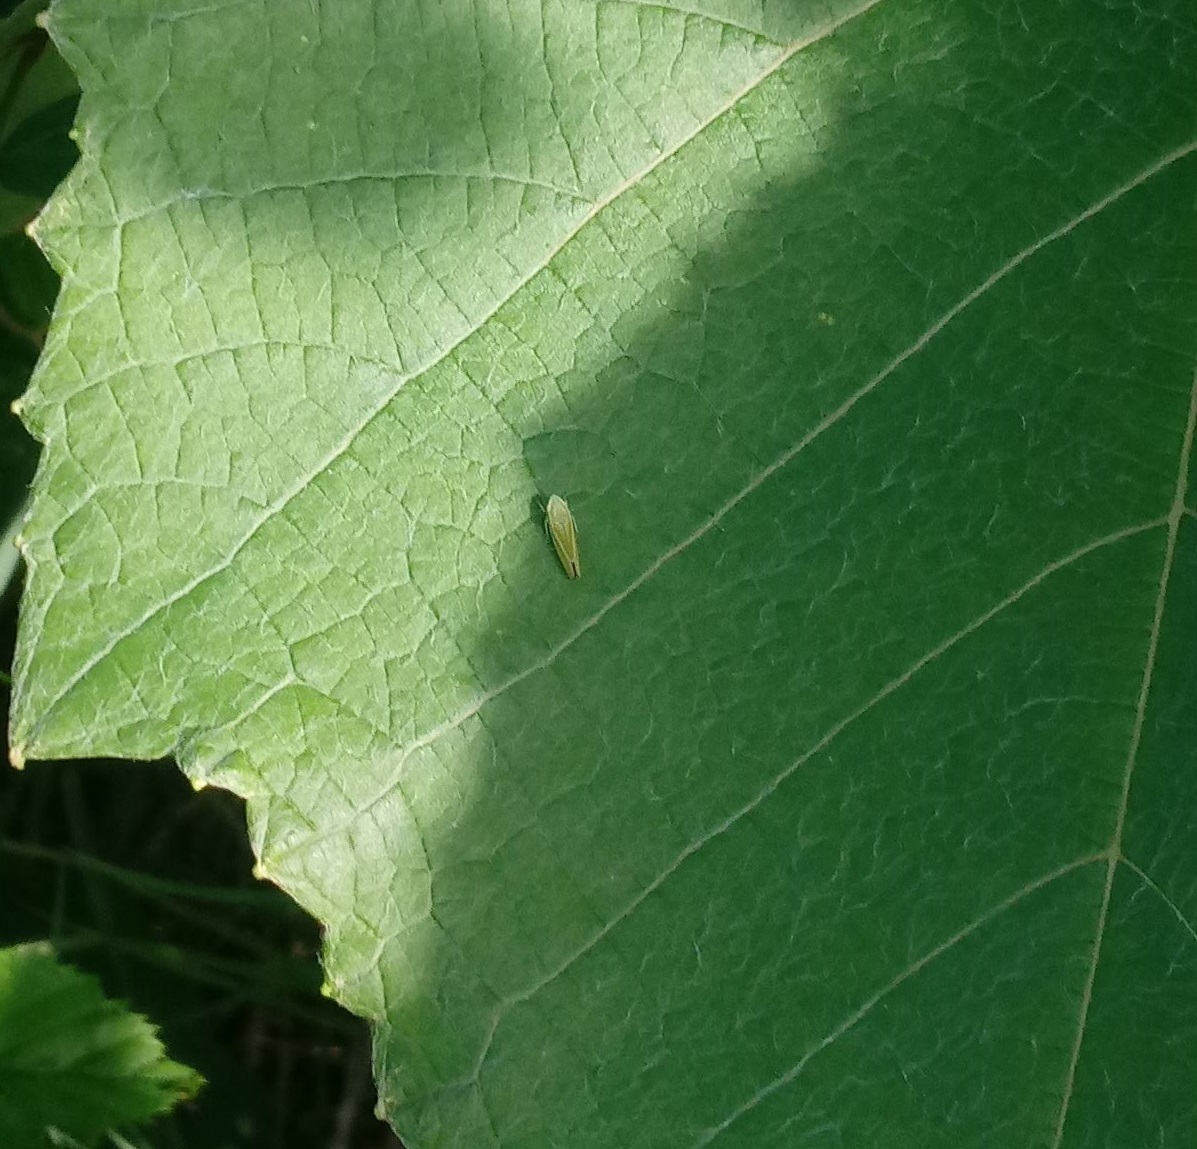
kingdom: Animalia
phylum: Arthropoda
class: Insecta
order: Hemiptera
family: Cicadellidae
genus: Graphocephala
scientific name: Graphocephala versuta
